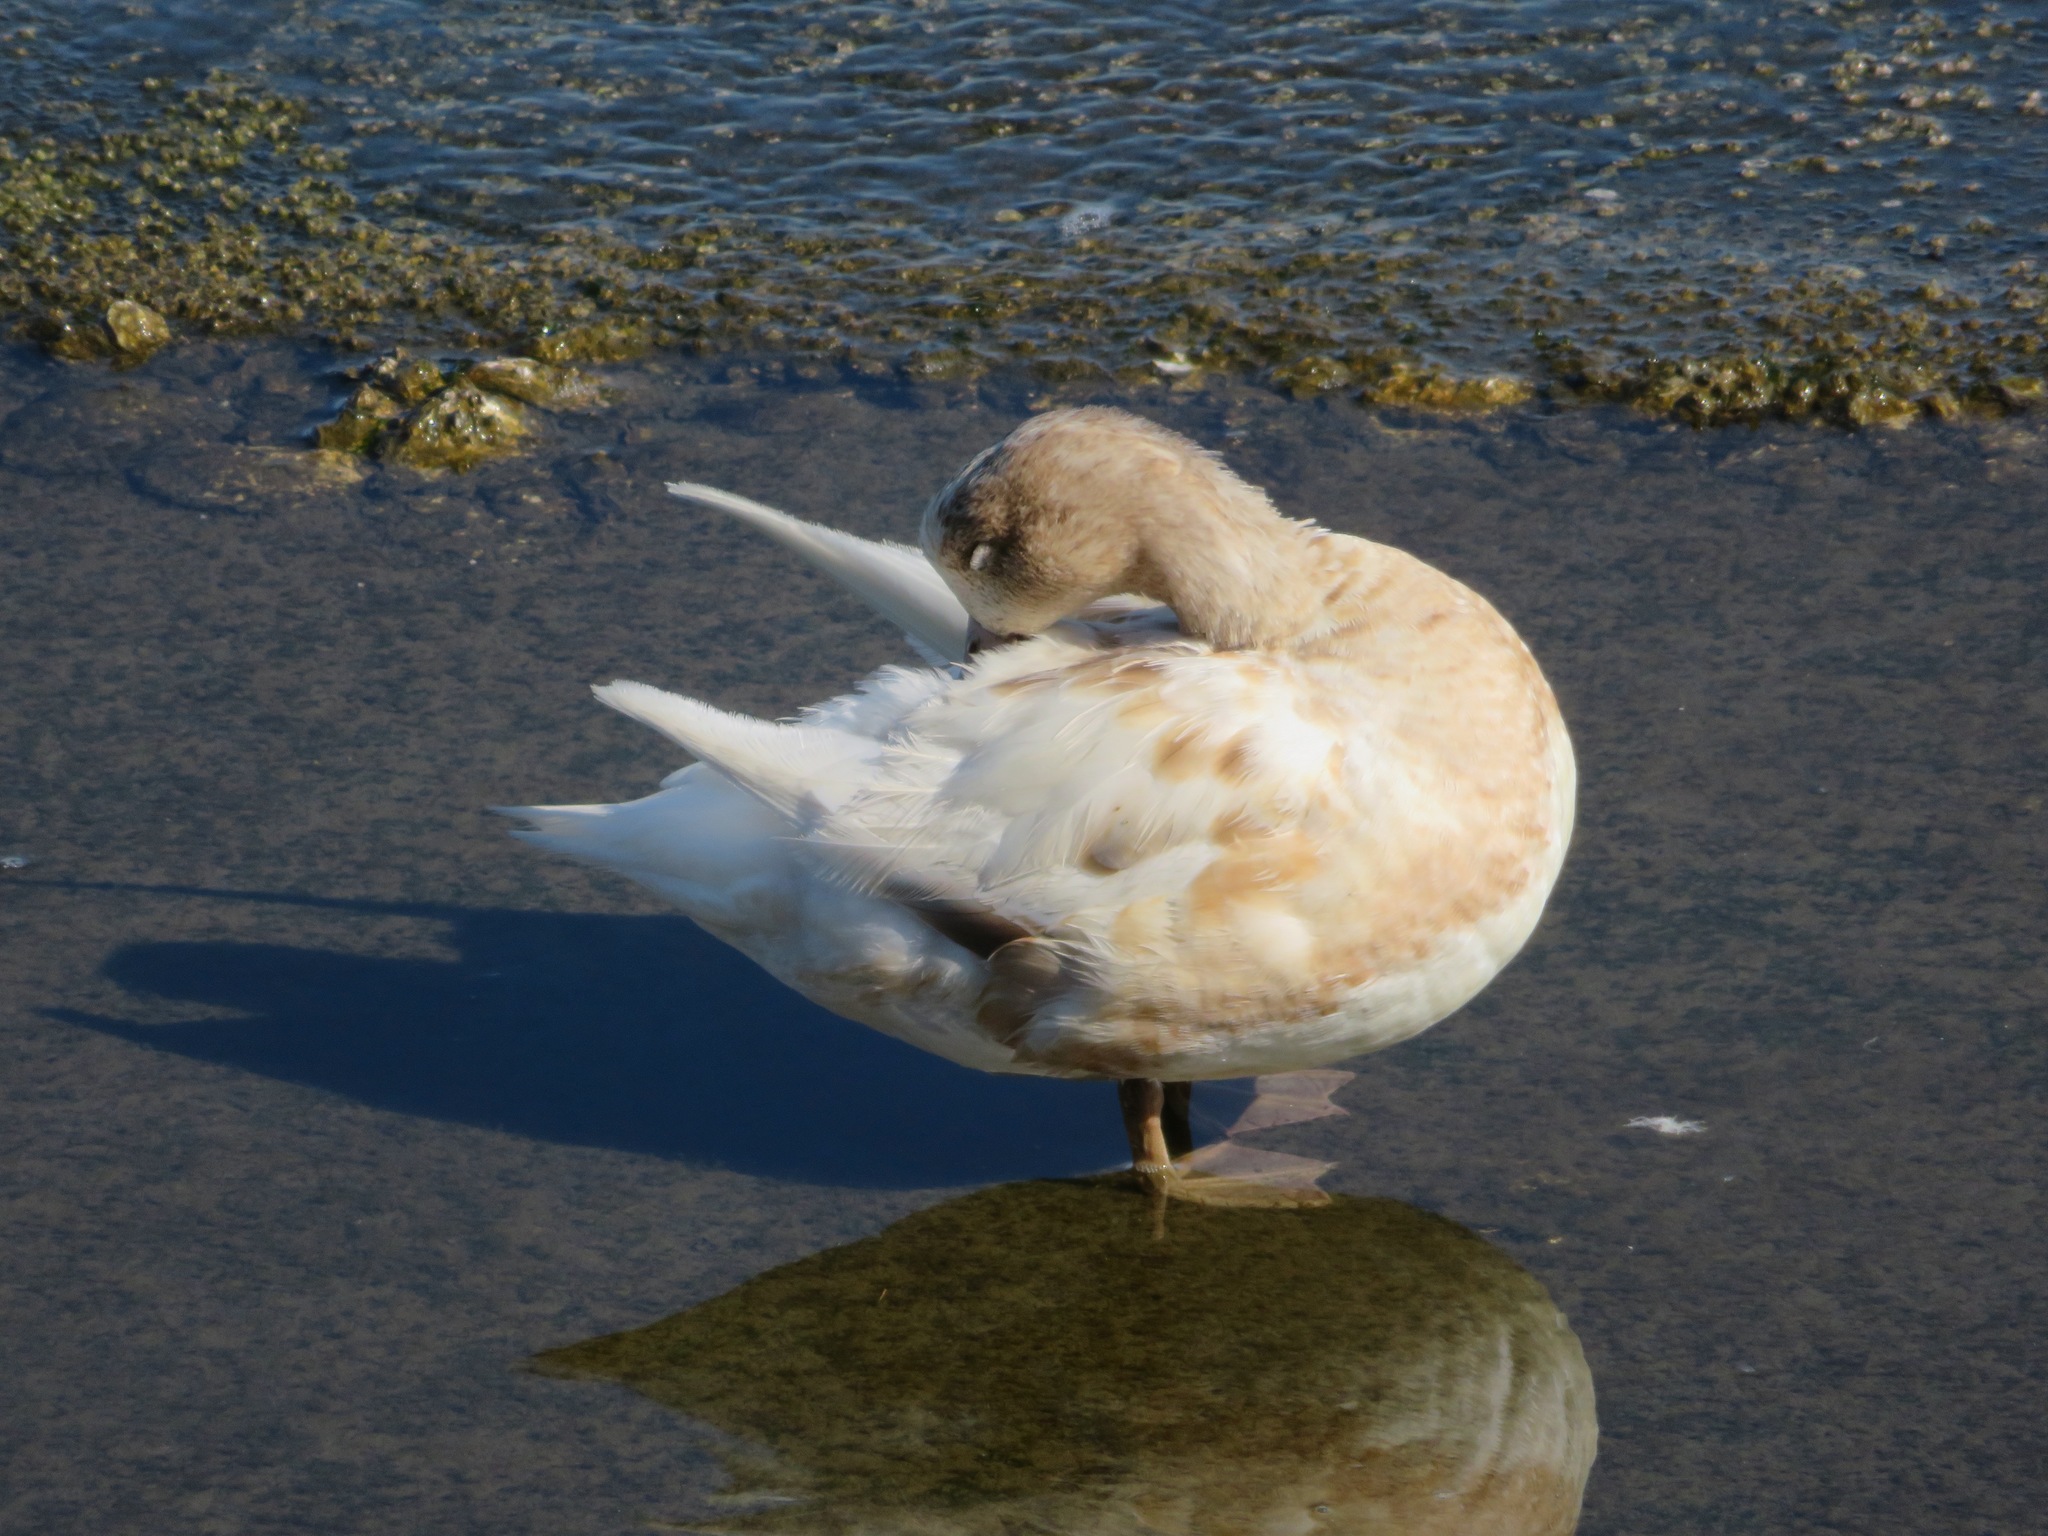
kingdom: Animalia
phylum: Chordata
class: Aves
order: Anseriformes
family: Anatidae
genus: Mareca
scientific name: Mareca penelope
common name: Eurasian wigeon
